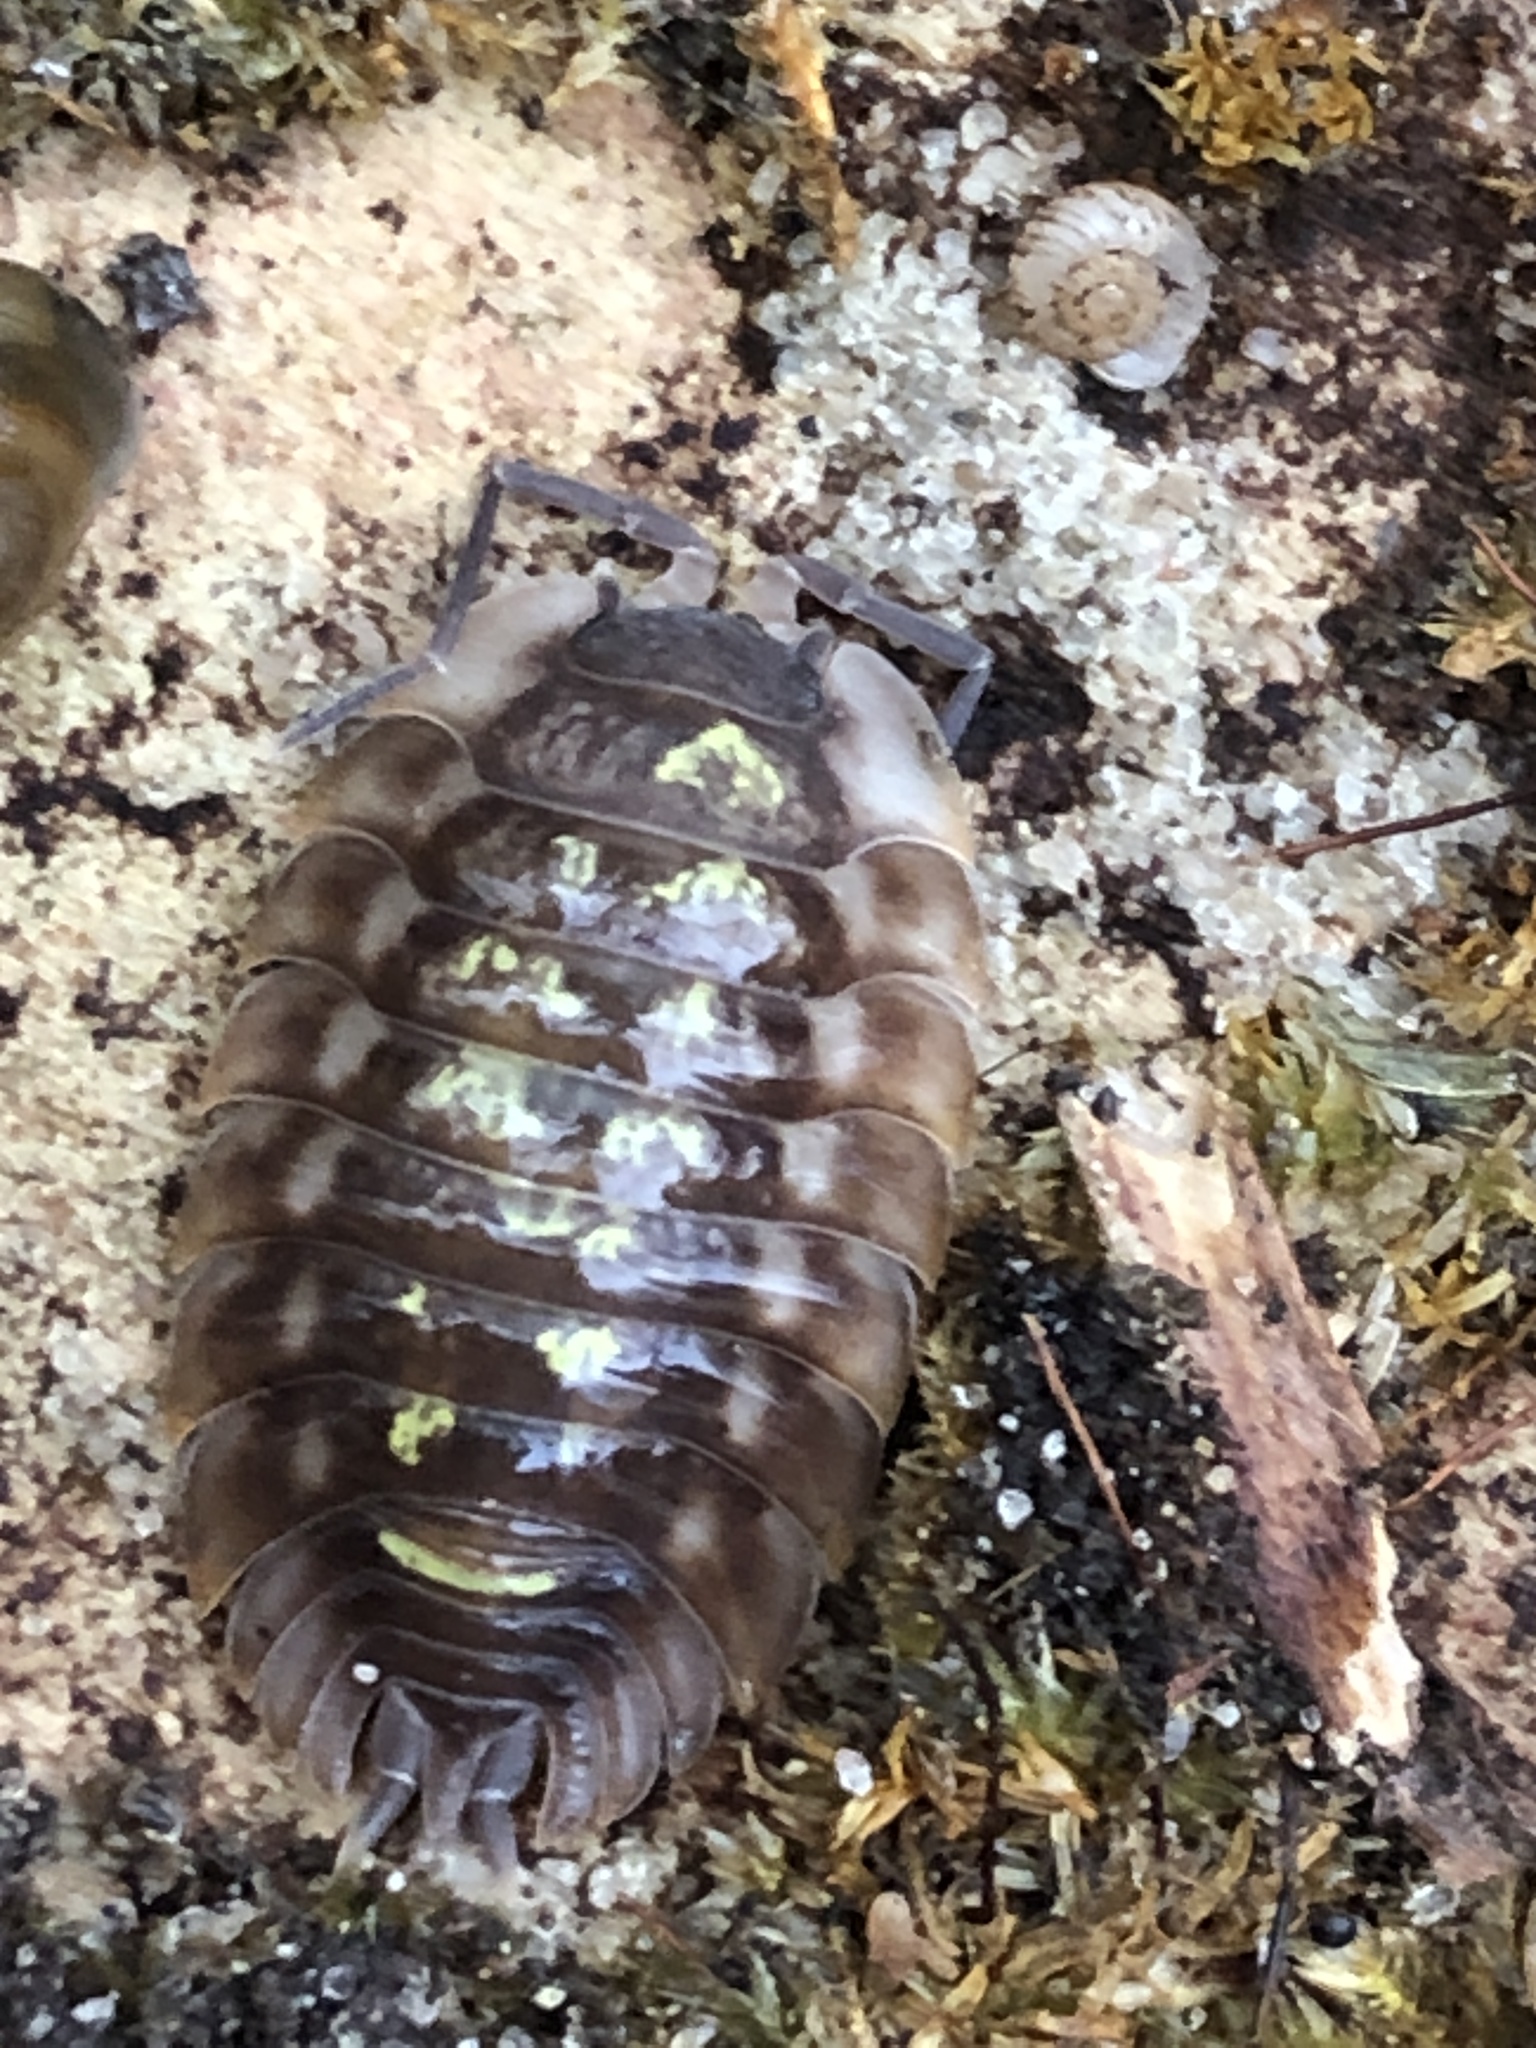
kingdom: Animalia
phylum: Arthropoda
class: Malacostraca
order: Isopoda
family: Oniscidae
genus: Oniscus
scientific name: Oniscus asellus
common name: Common shiny woodlouse
